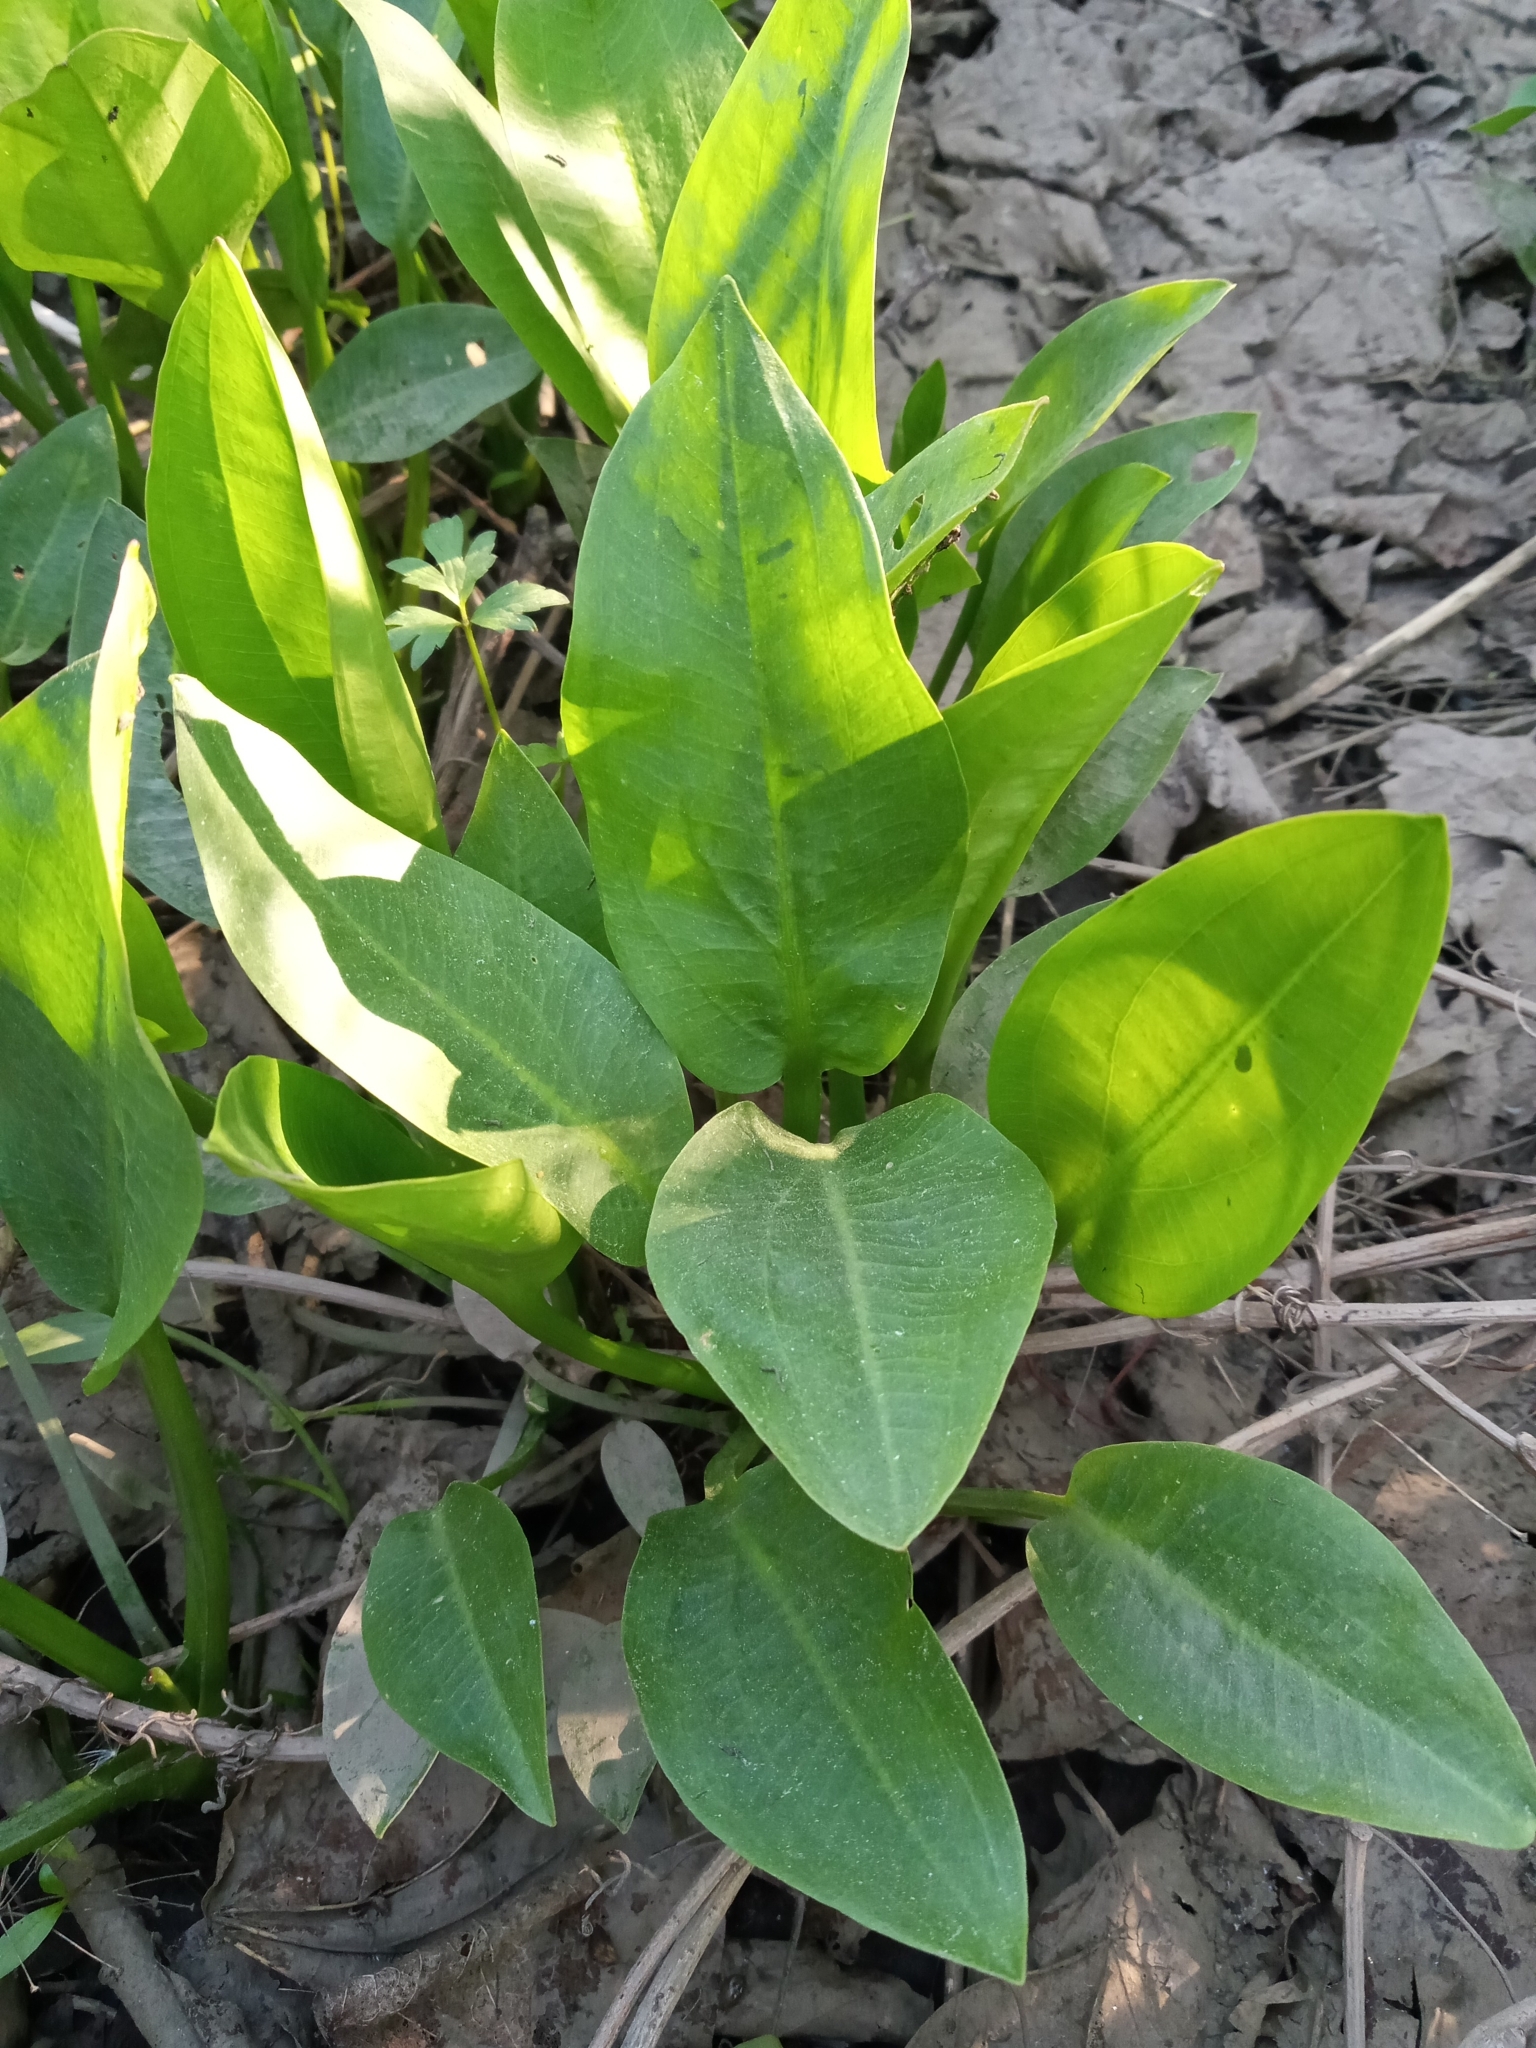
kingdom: Plantae
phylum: Tracheophyta
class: Liliopsida
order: Alismatales
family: Alismataceae
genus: Alisma
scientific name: Alisma plantago-aquatica
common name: Water-plantain
